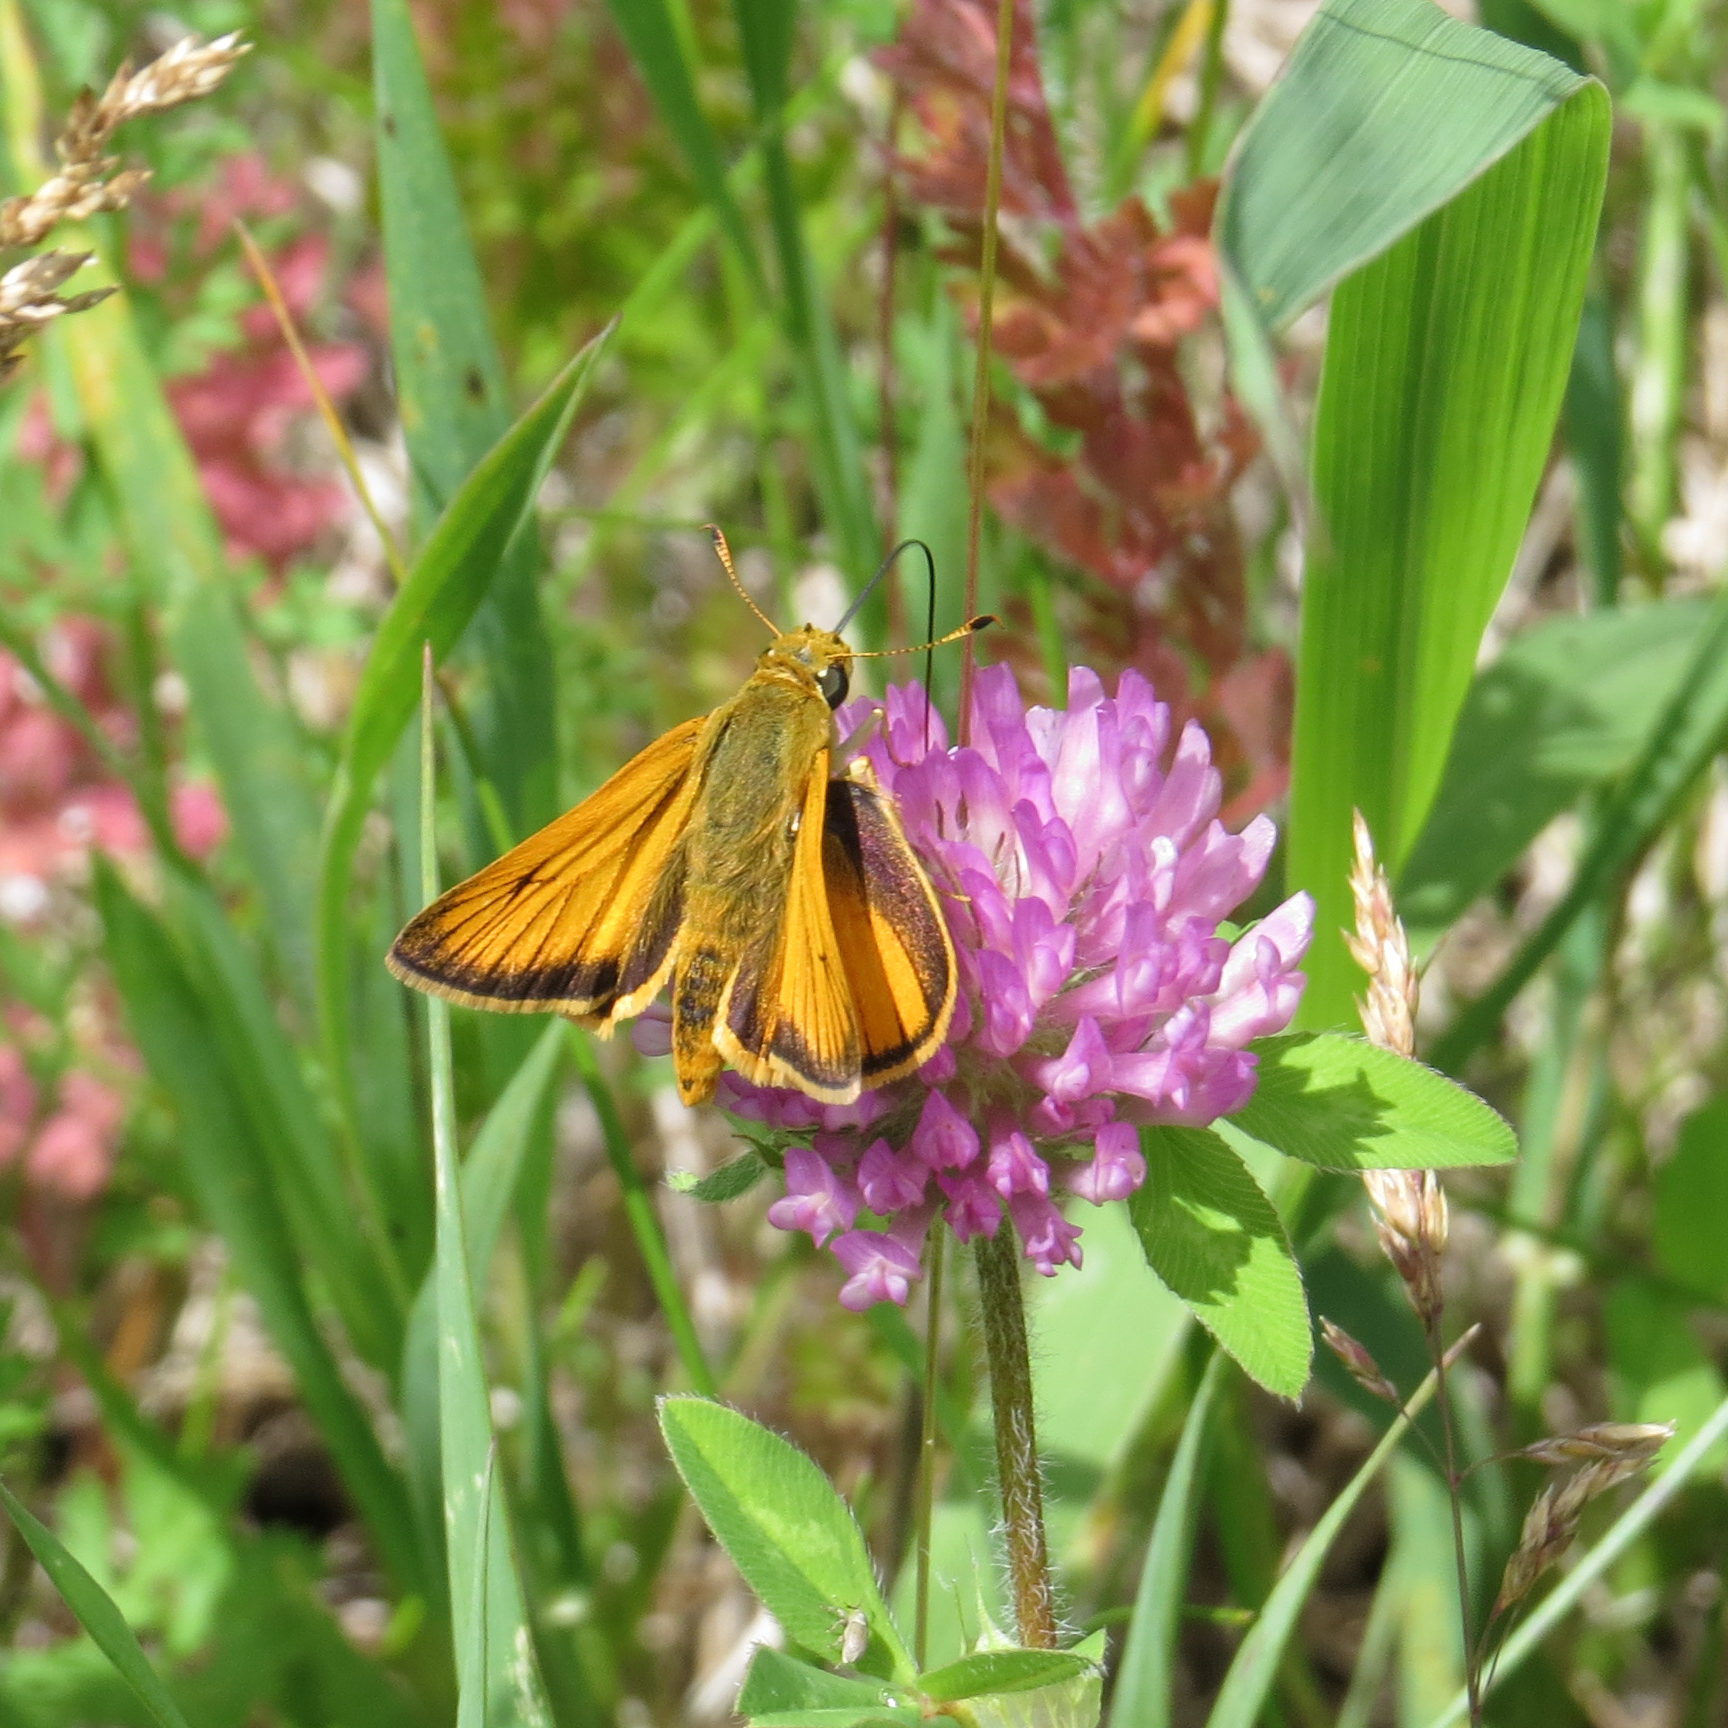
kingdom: Animalia
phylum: Arthropoda
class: Insecta
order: Lepidoptera
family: Hesperiidae
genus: Atrytone
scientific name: Atrytone delaware
